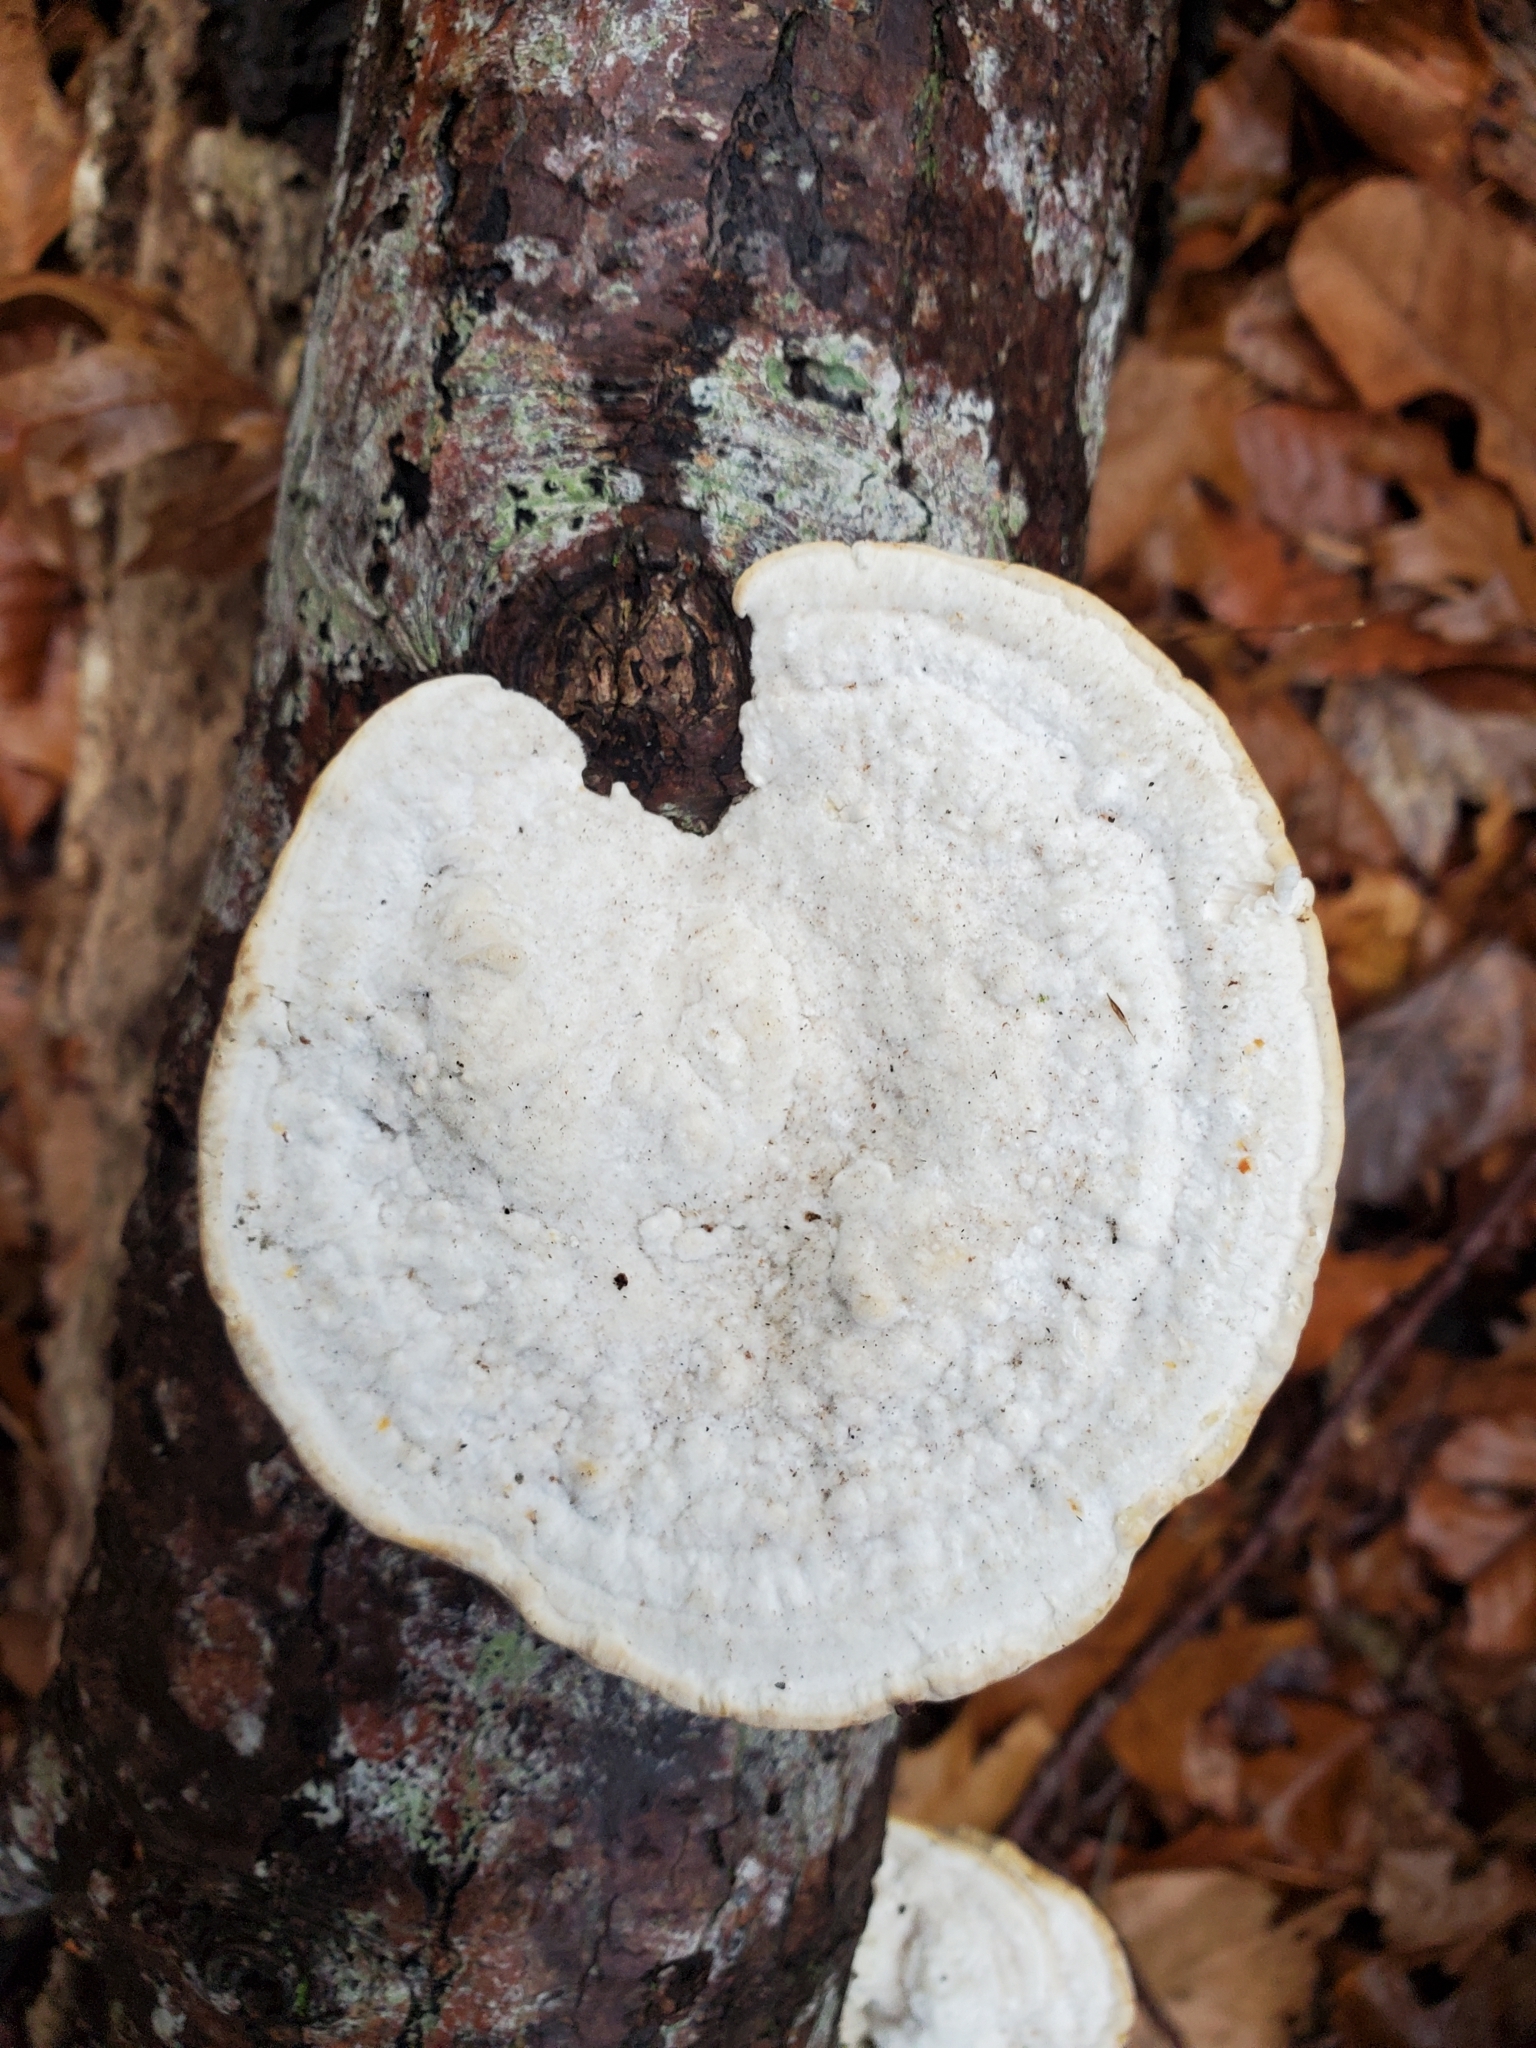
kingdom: Fungi
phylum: Basidiomycota
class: Agaricomycetes
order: Polyporales
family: Polyporaceae
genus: Trametes
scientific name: Trametes gibbosa
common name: Lumpy bracket
